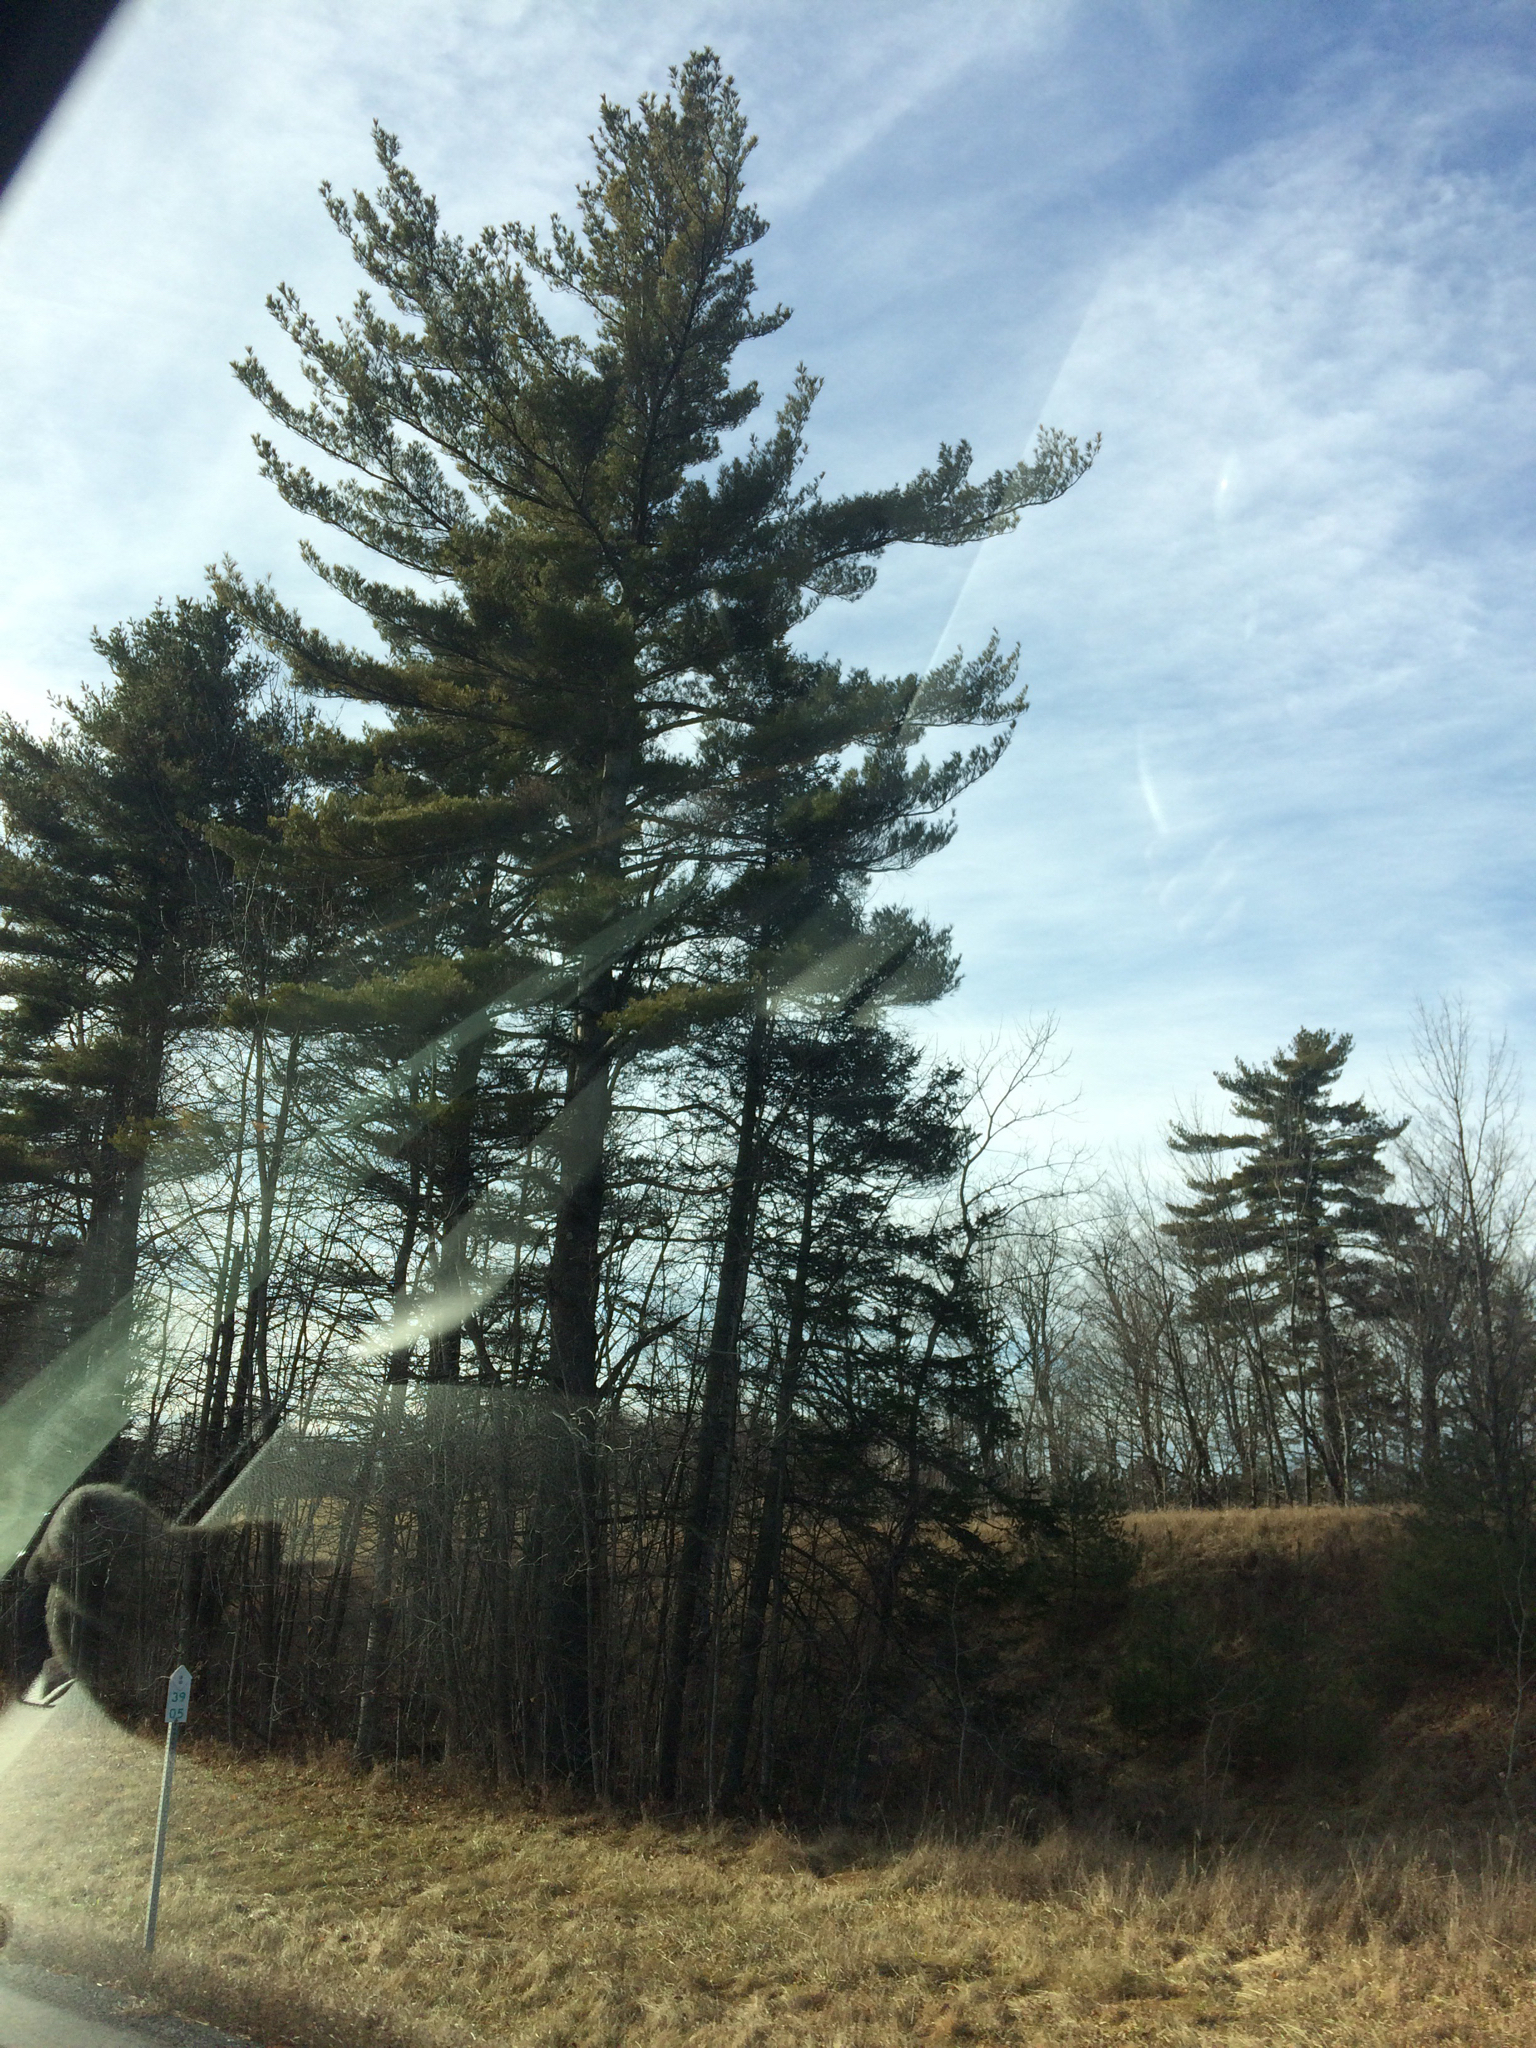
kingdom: Plantae
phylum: Tracheophyta
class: Pinopsida
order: Pinales
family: Pinaceae
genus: Pinus
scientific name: Pinus strobus
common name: Weymouth pine
